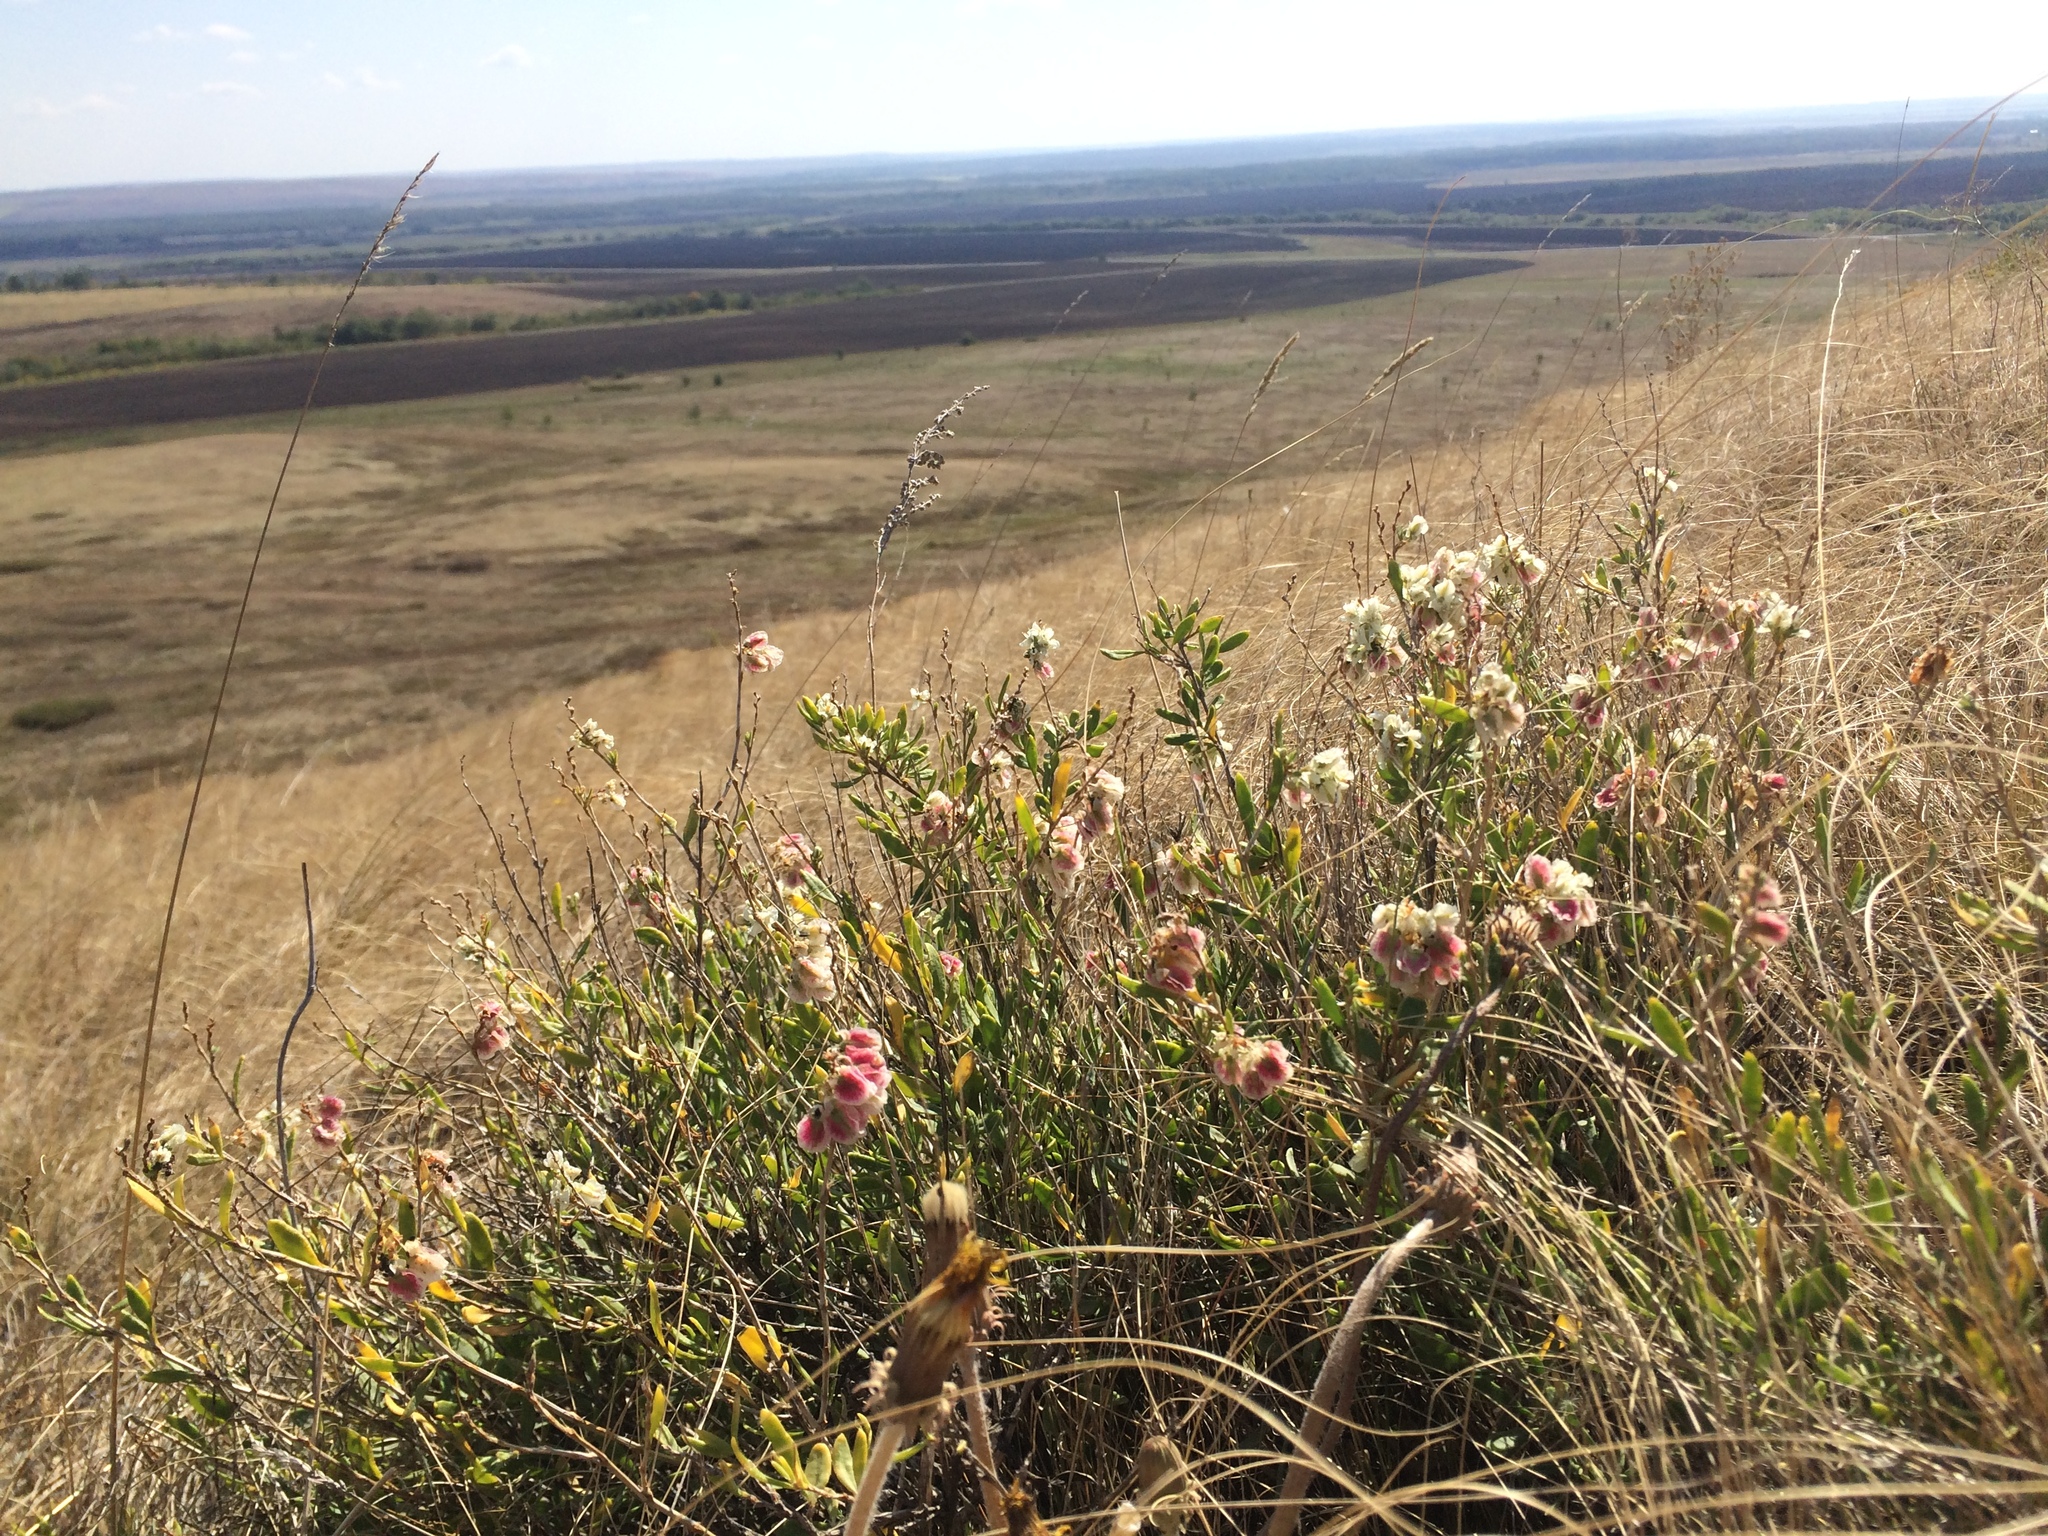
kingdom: Plantae
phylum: Tracheophyta
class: Magnoliopsida
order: Caryophyllales
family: Polygonaceae
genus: Atraphaxis
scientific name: Atraphaxis frutescens
